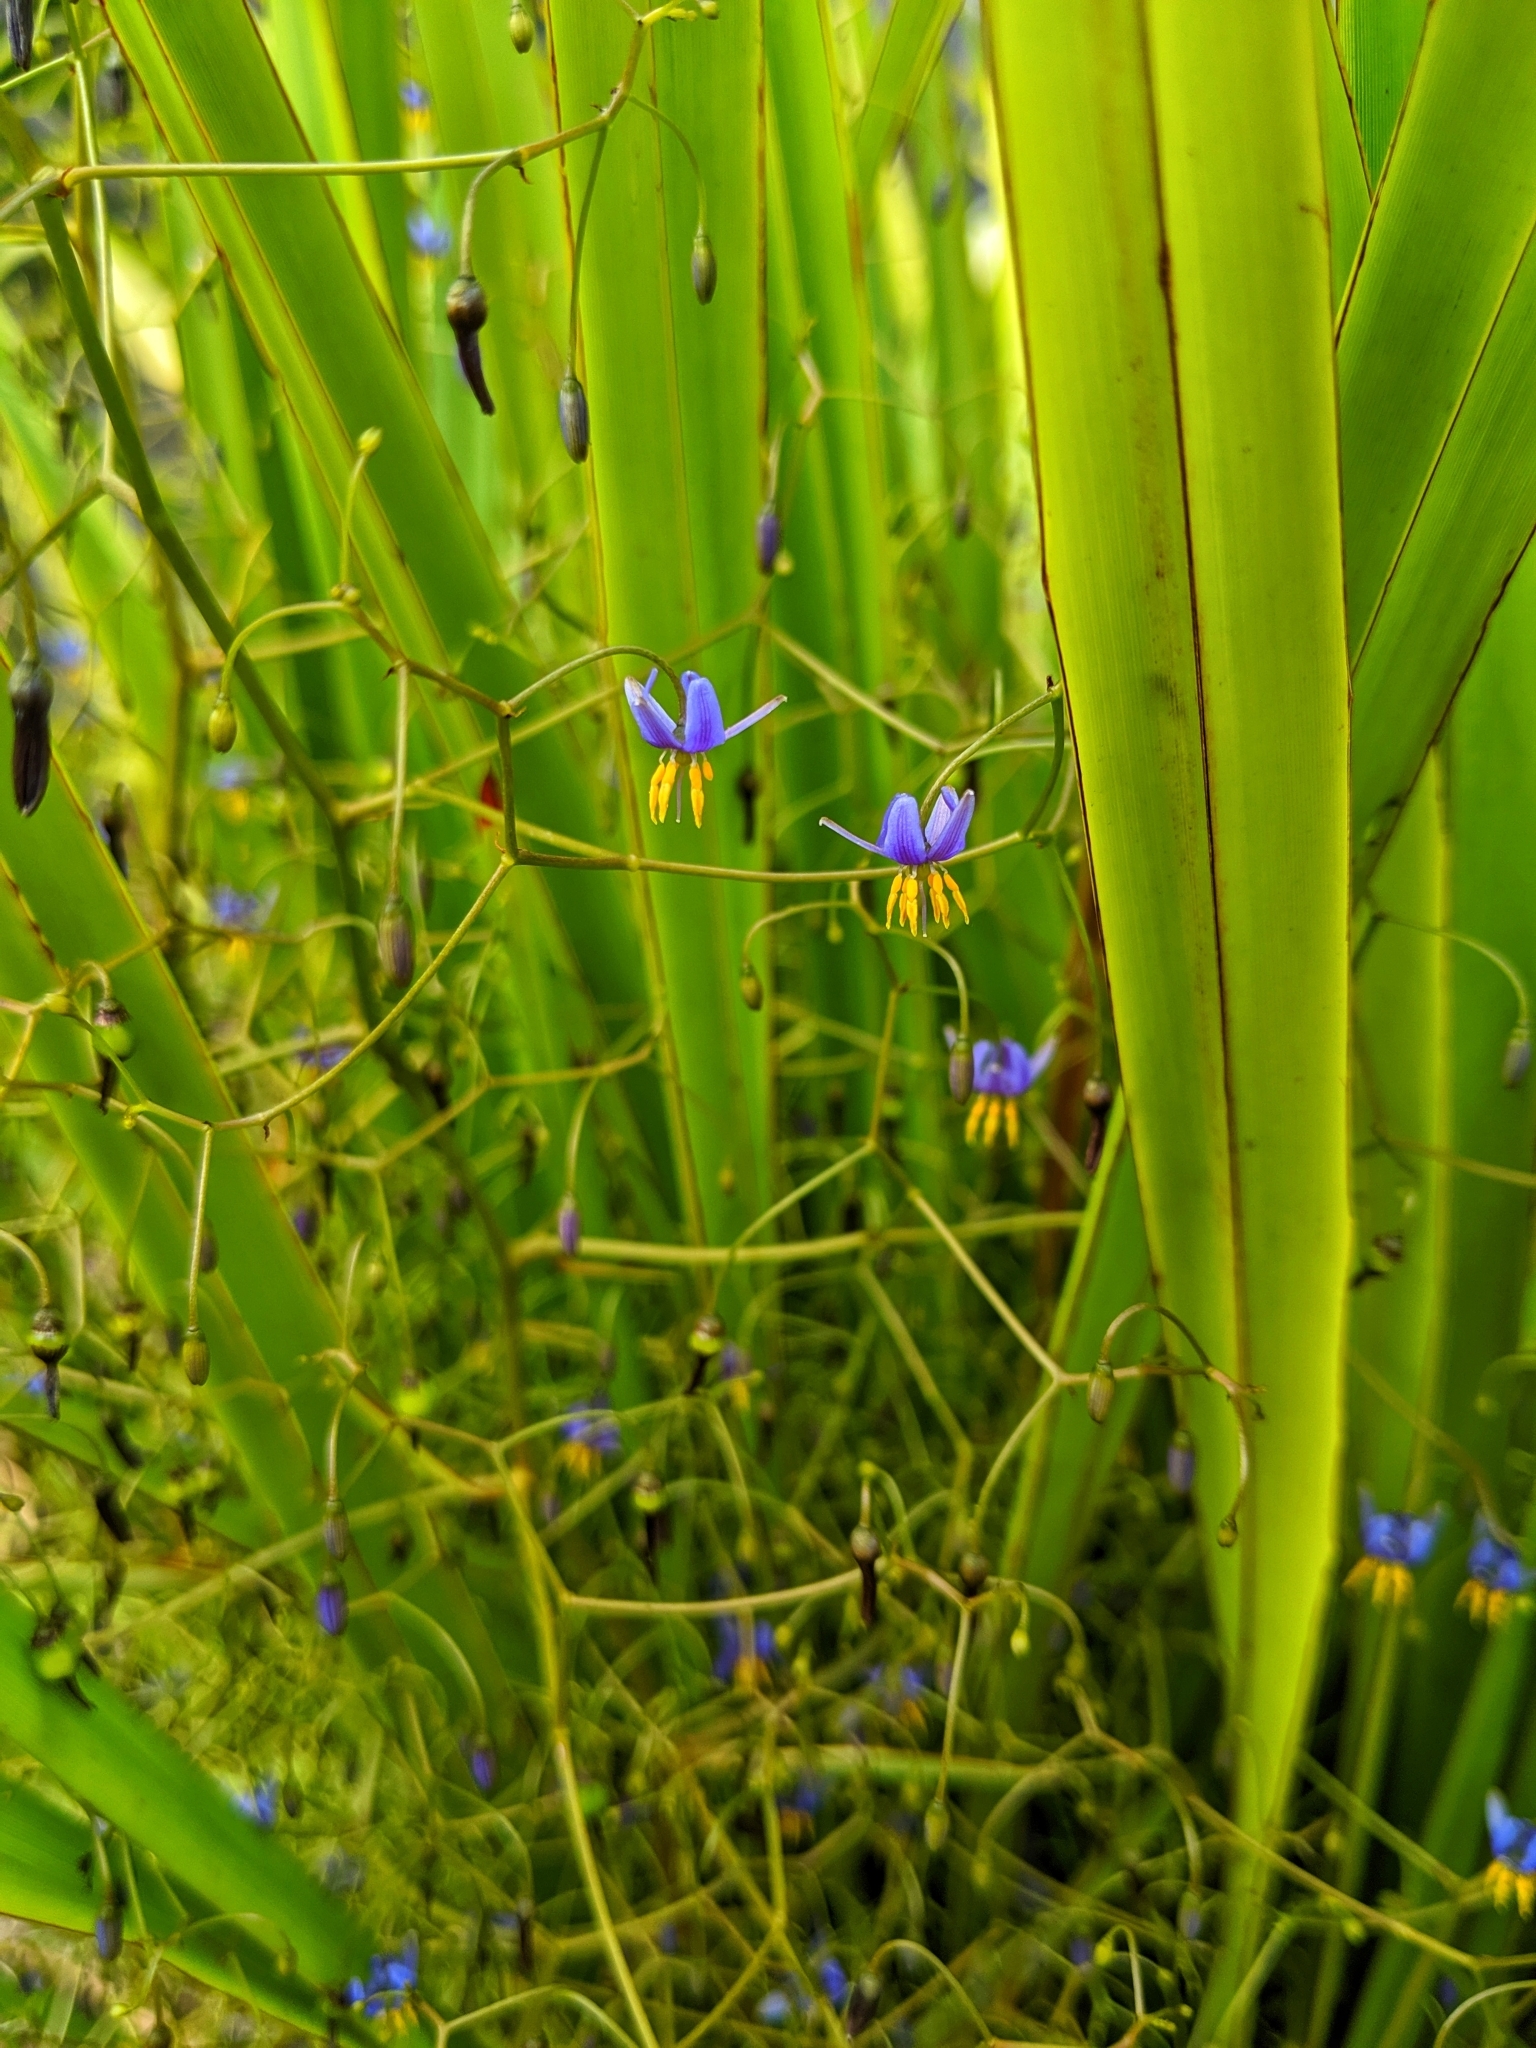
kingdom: Plantae
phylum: Tracheophyta
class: Liliopsida
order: Asparagales
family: Asphodelaceae
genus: Dianella
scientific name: Dianella brevipedunculata
